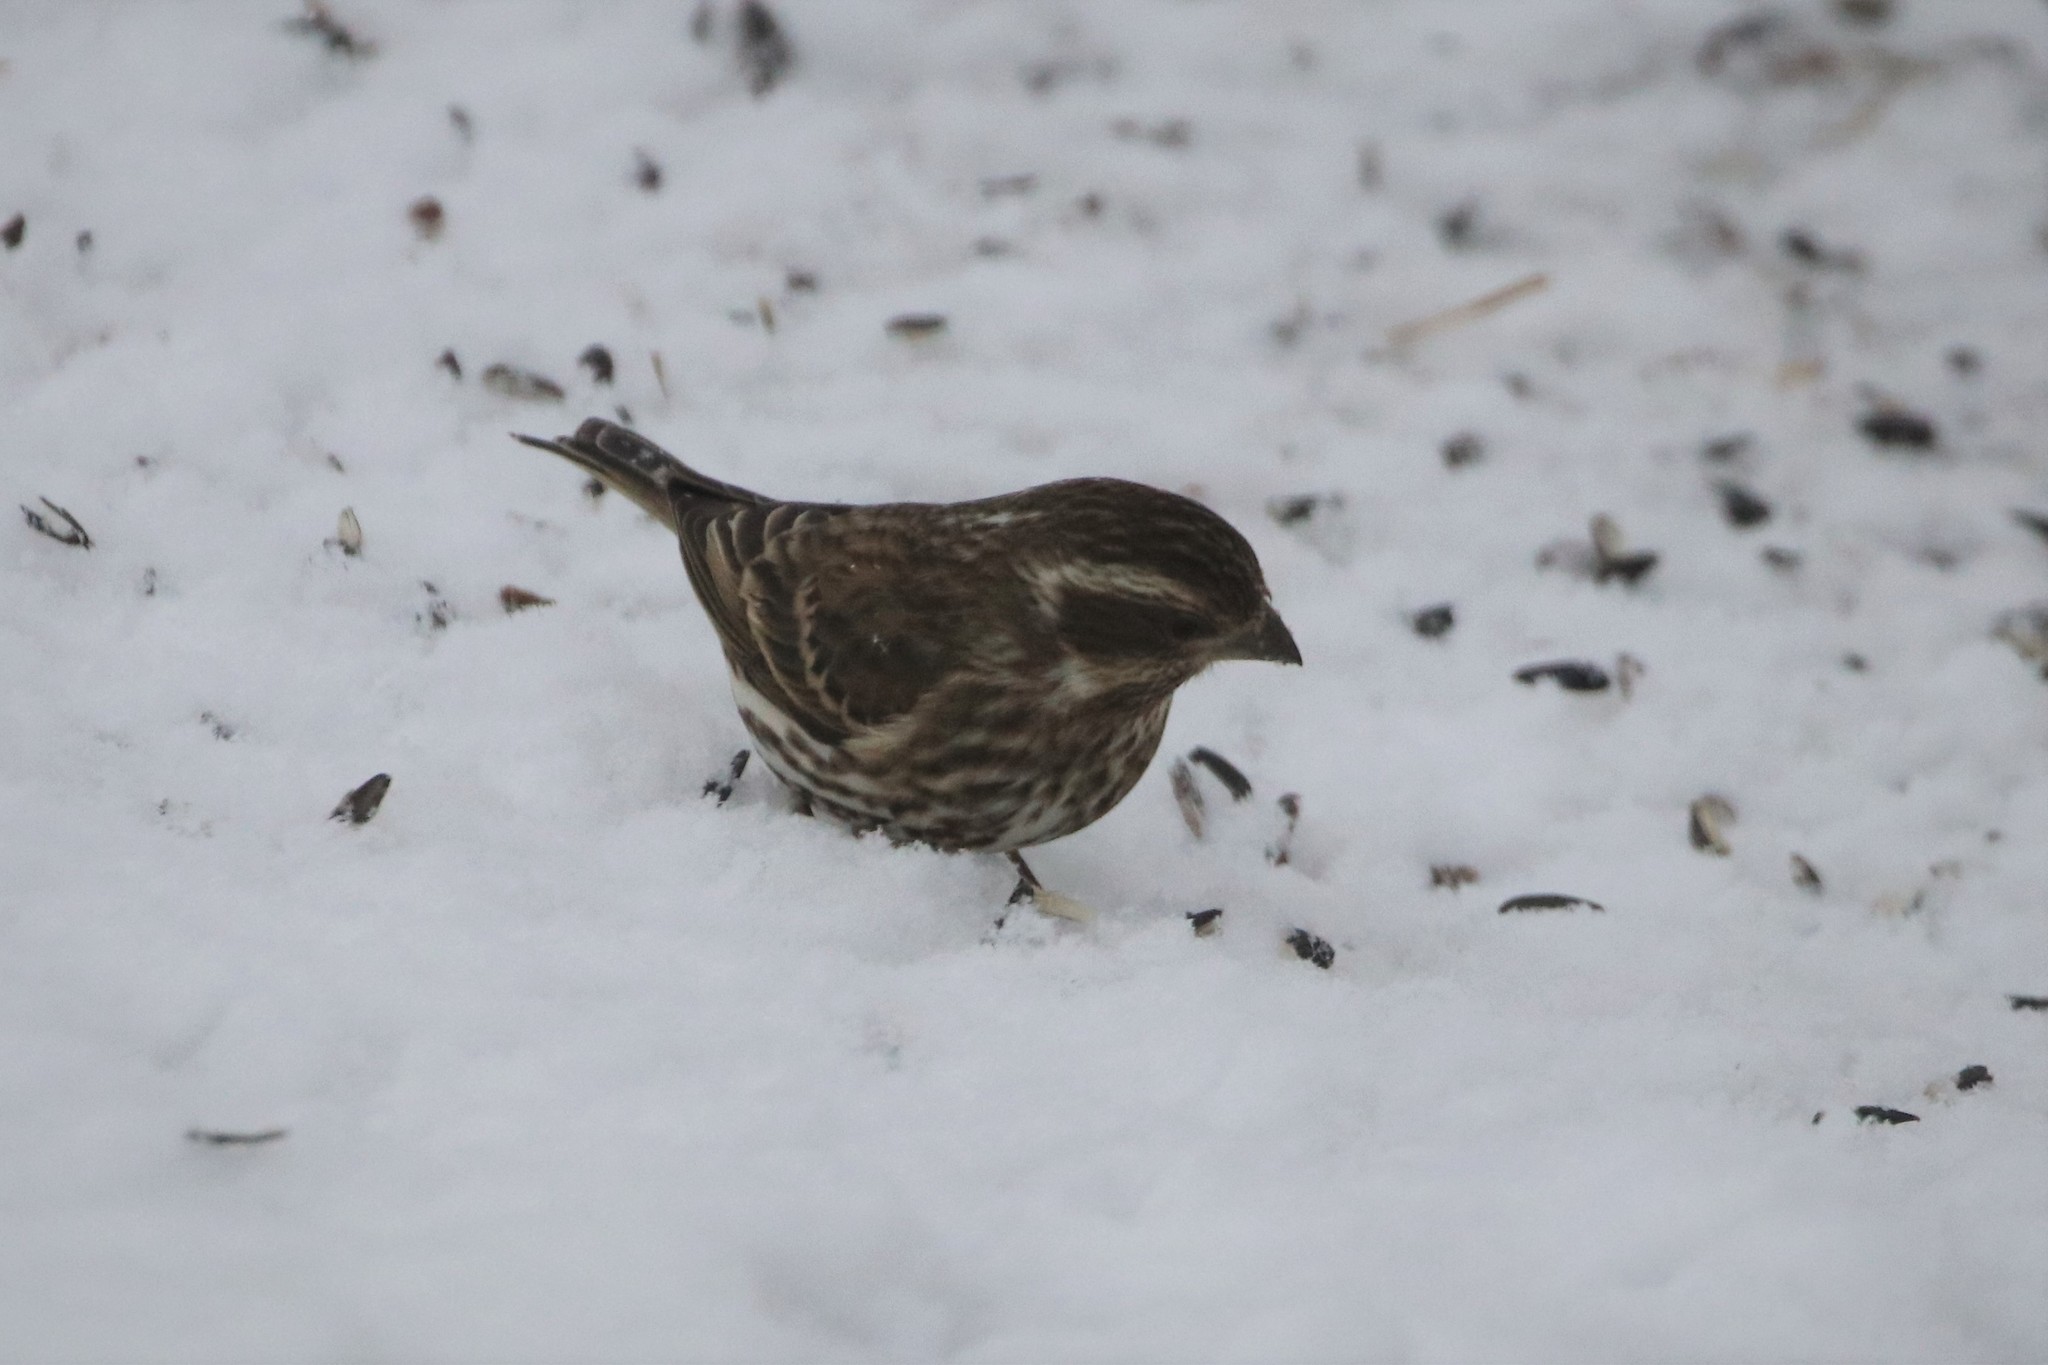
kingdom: Animalia
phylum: Chordata
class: Aves
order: Passeriformes
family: Fringillidae
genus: Haemorhous
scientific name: Haemorhous purpureus
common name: Purple finch
